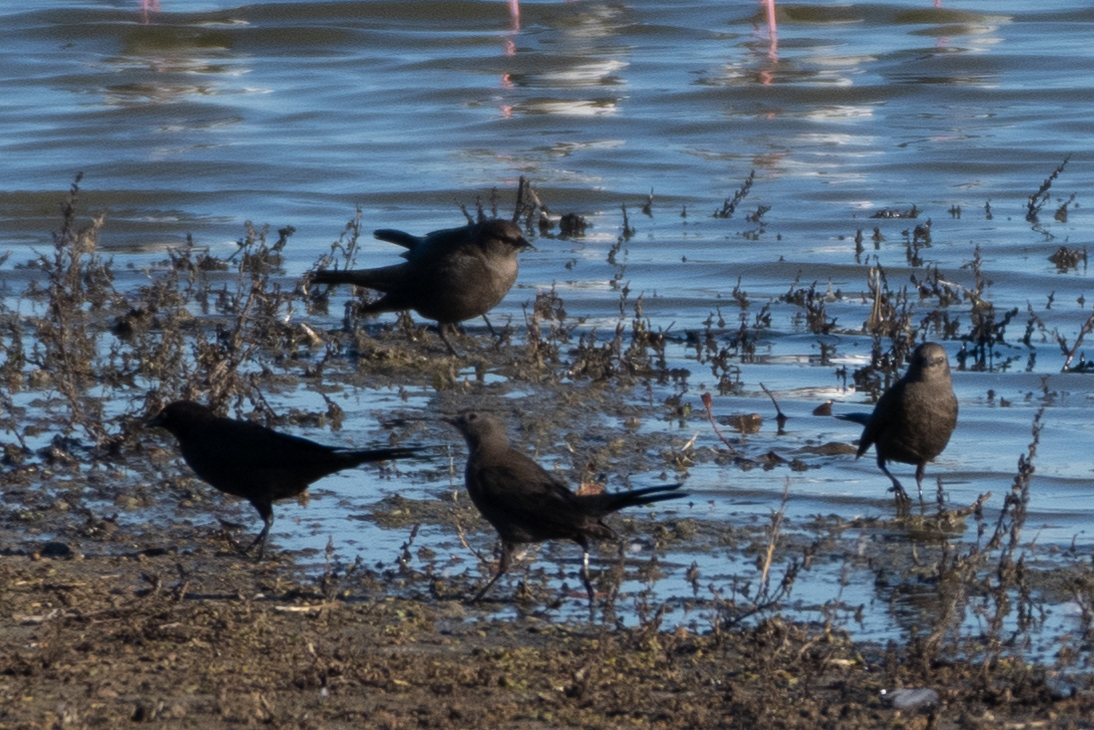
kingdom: Animalia
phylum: Chordata
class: Aves
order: Passeriformes
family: Icteridae
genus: Euphagus
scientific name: Euphagus cyanocephalus
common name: Brewer's blackbird
